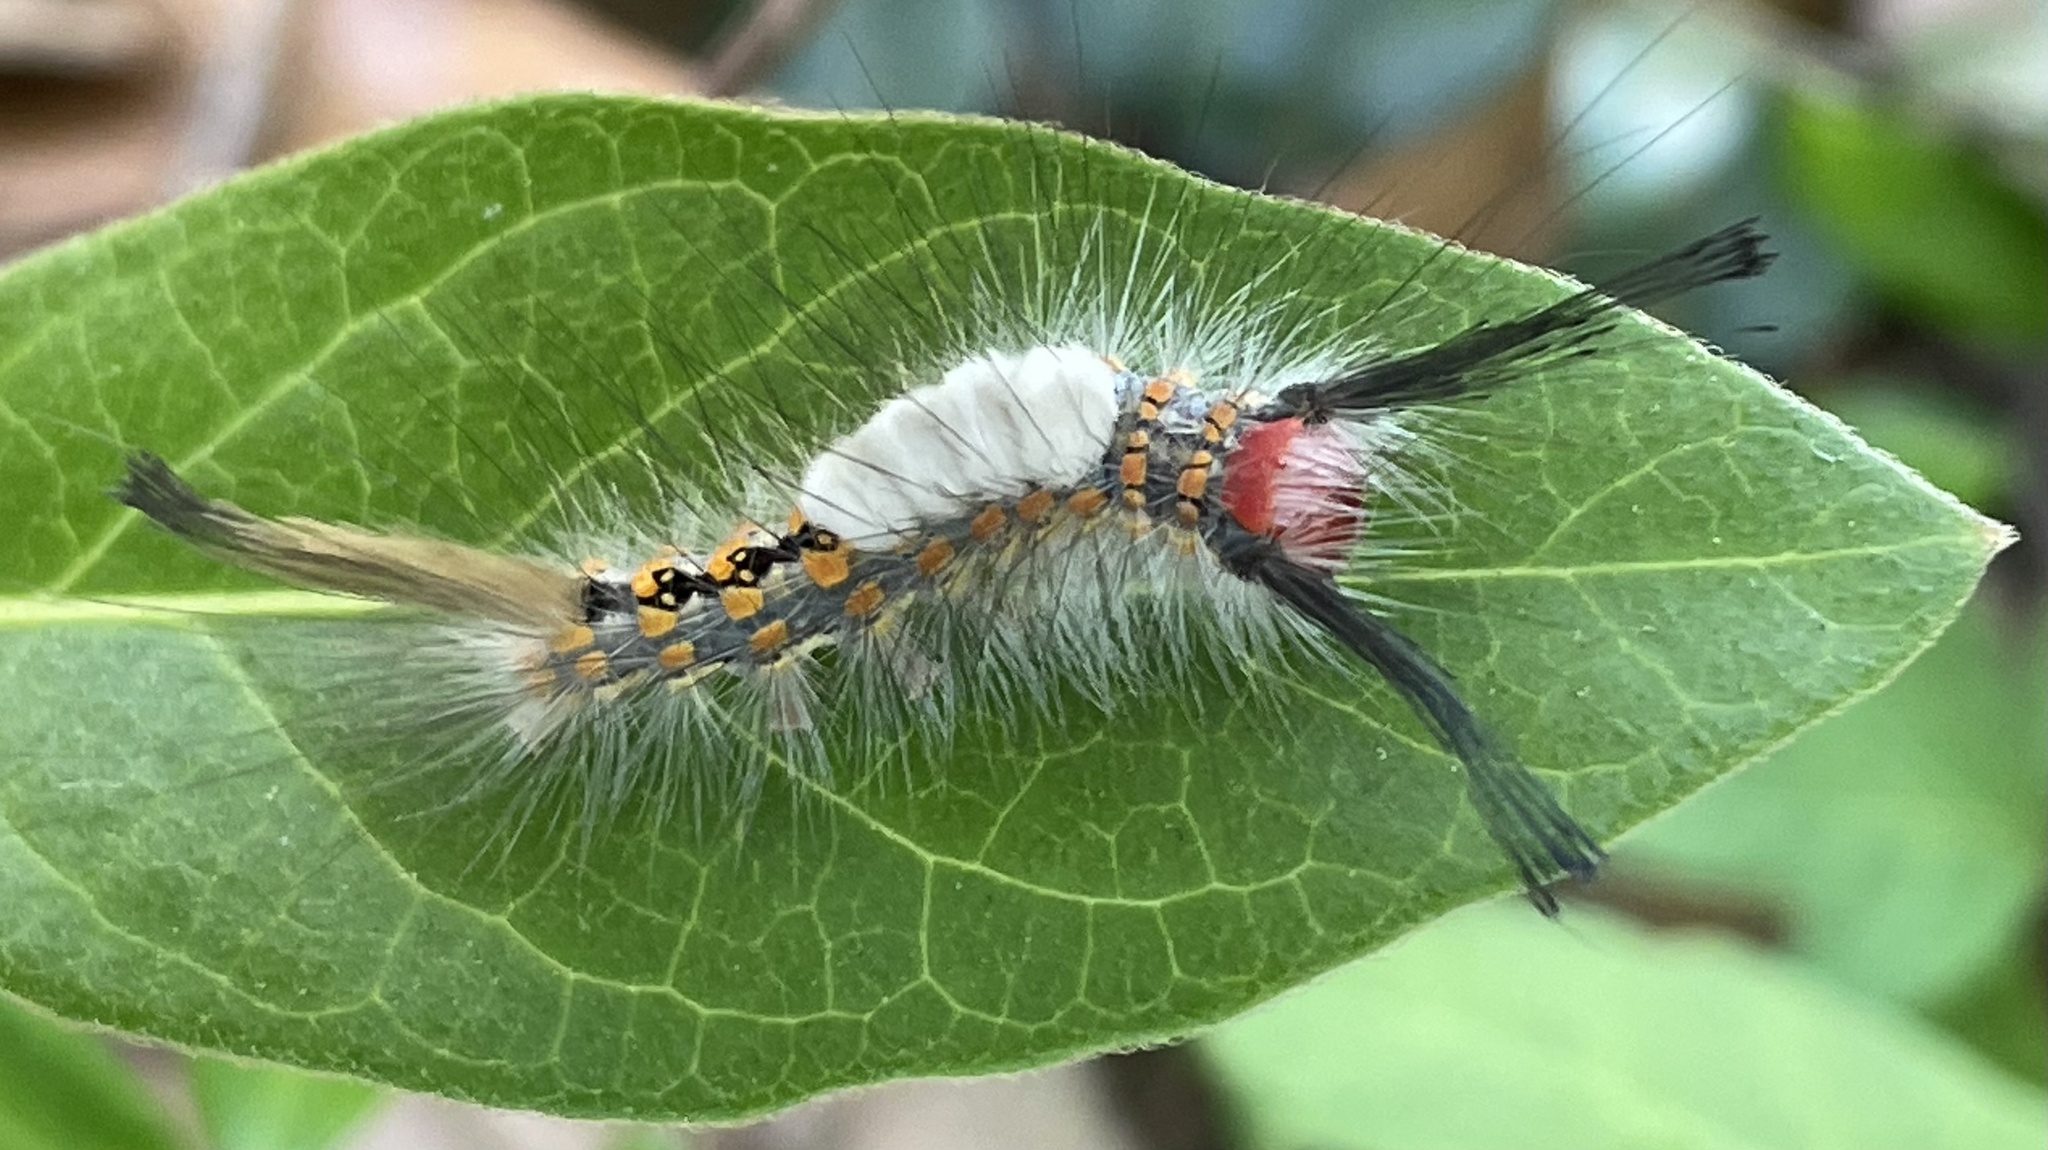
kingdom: Animalia
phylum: Arthropoda
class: Insecta
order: Lepidoptera
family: Erebidae
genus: Orgyia
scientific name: Orgyia detrita
